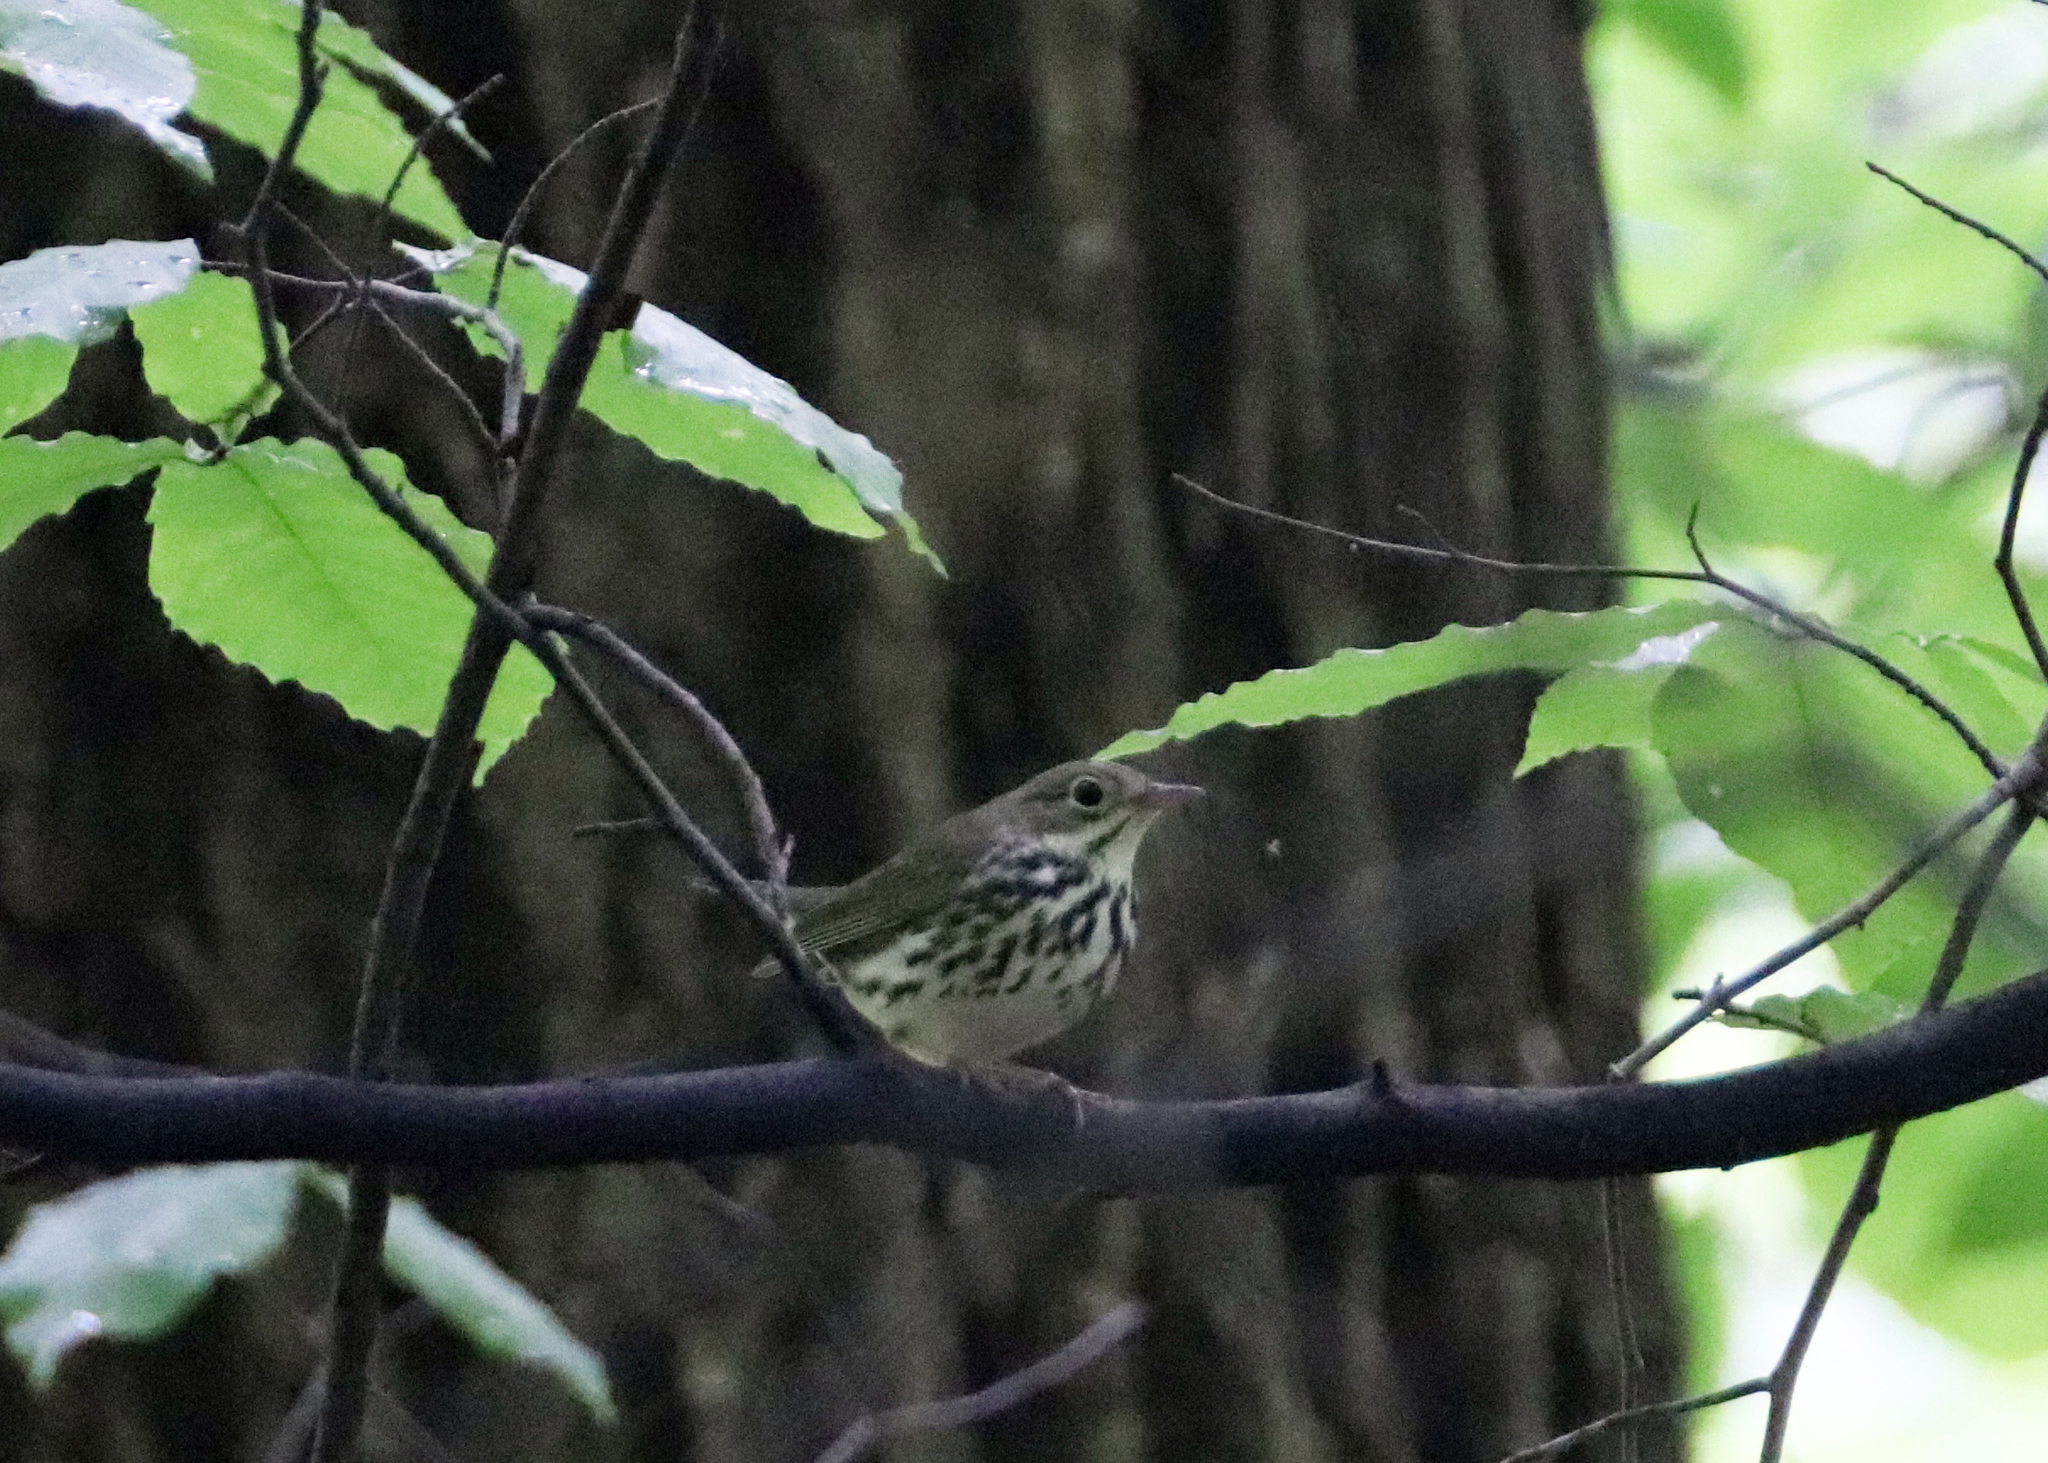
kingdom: Animalia
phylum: Chordata
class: Aves
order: Passeriformes
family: Parulidae
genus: Seiurus
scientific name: Seiurus aurocapilla
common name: Ovenbird
